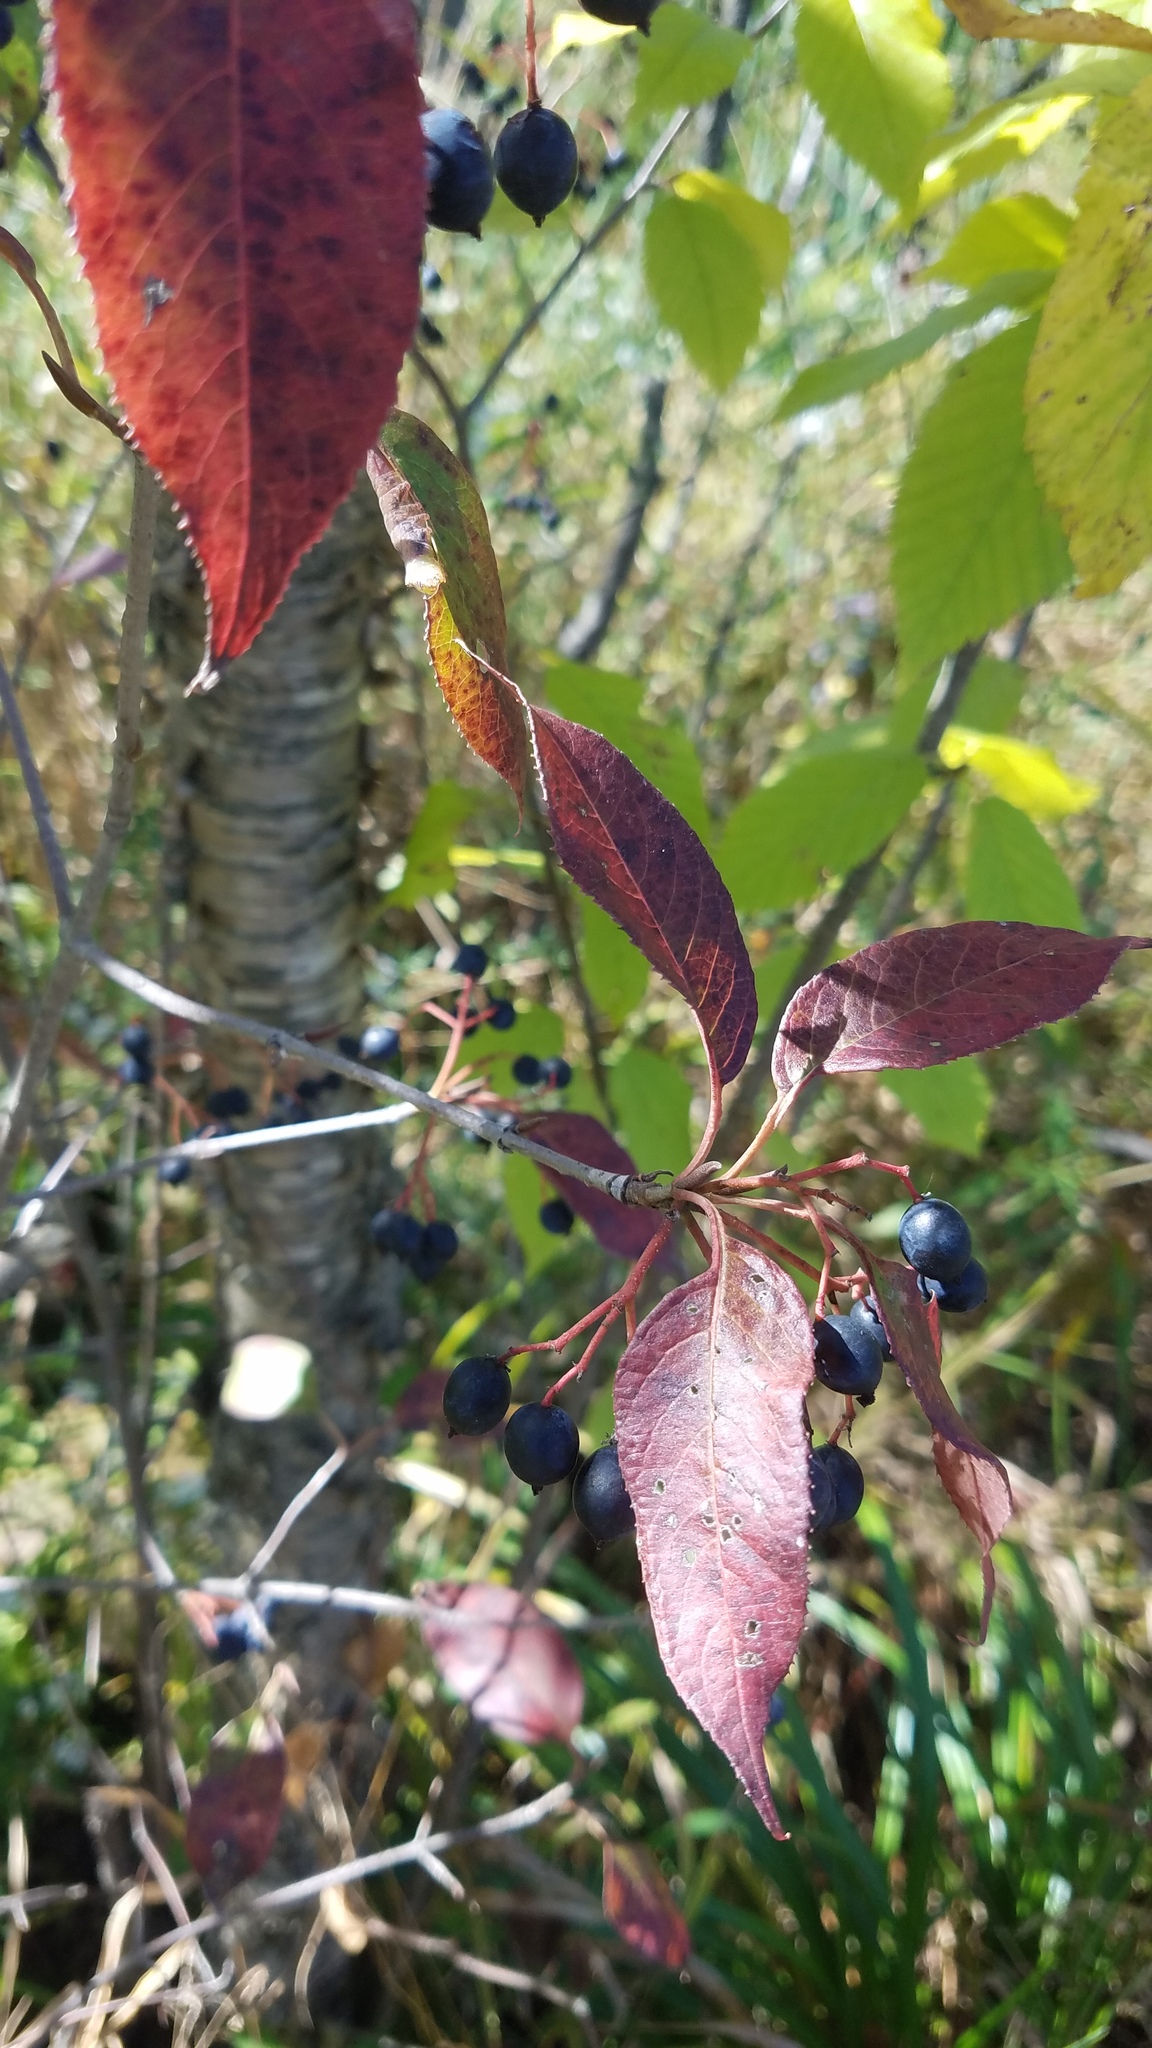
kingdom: Plantae
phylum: Tracheophyta
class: Magnoliopsida
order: Dipsacales
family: Viburnaceae
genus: Viburnum
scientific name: Viburnum lentago
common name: Black haw
